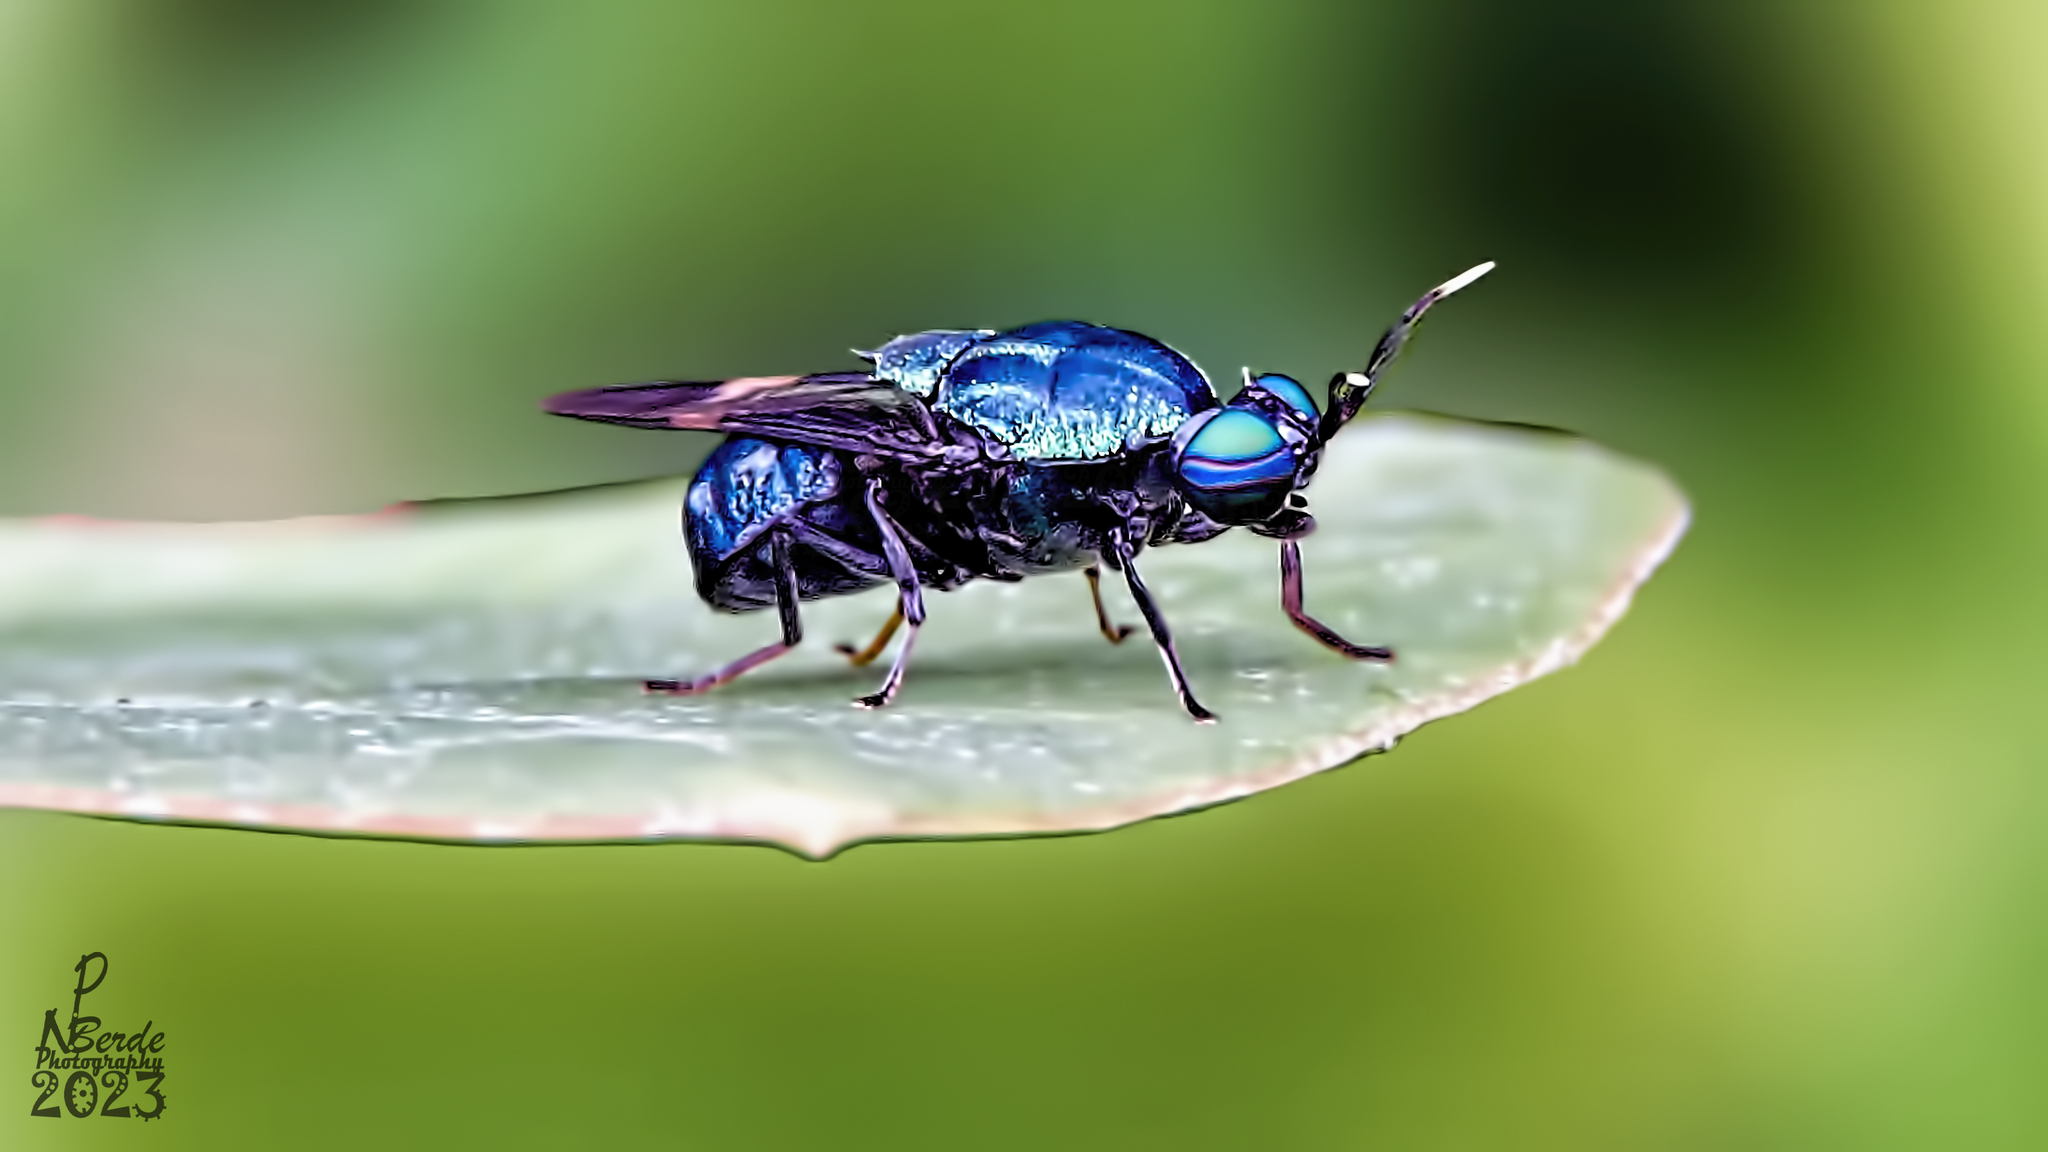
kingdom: Animalia
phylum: Arthropoda
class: Insecta
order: Diptera
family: Stratiomyidae
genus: Ptilocera
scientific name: Ptilocera continua
